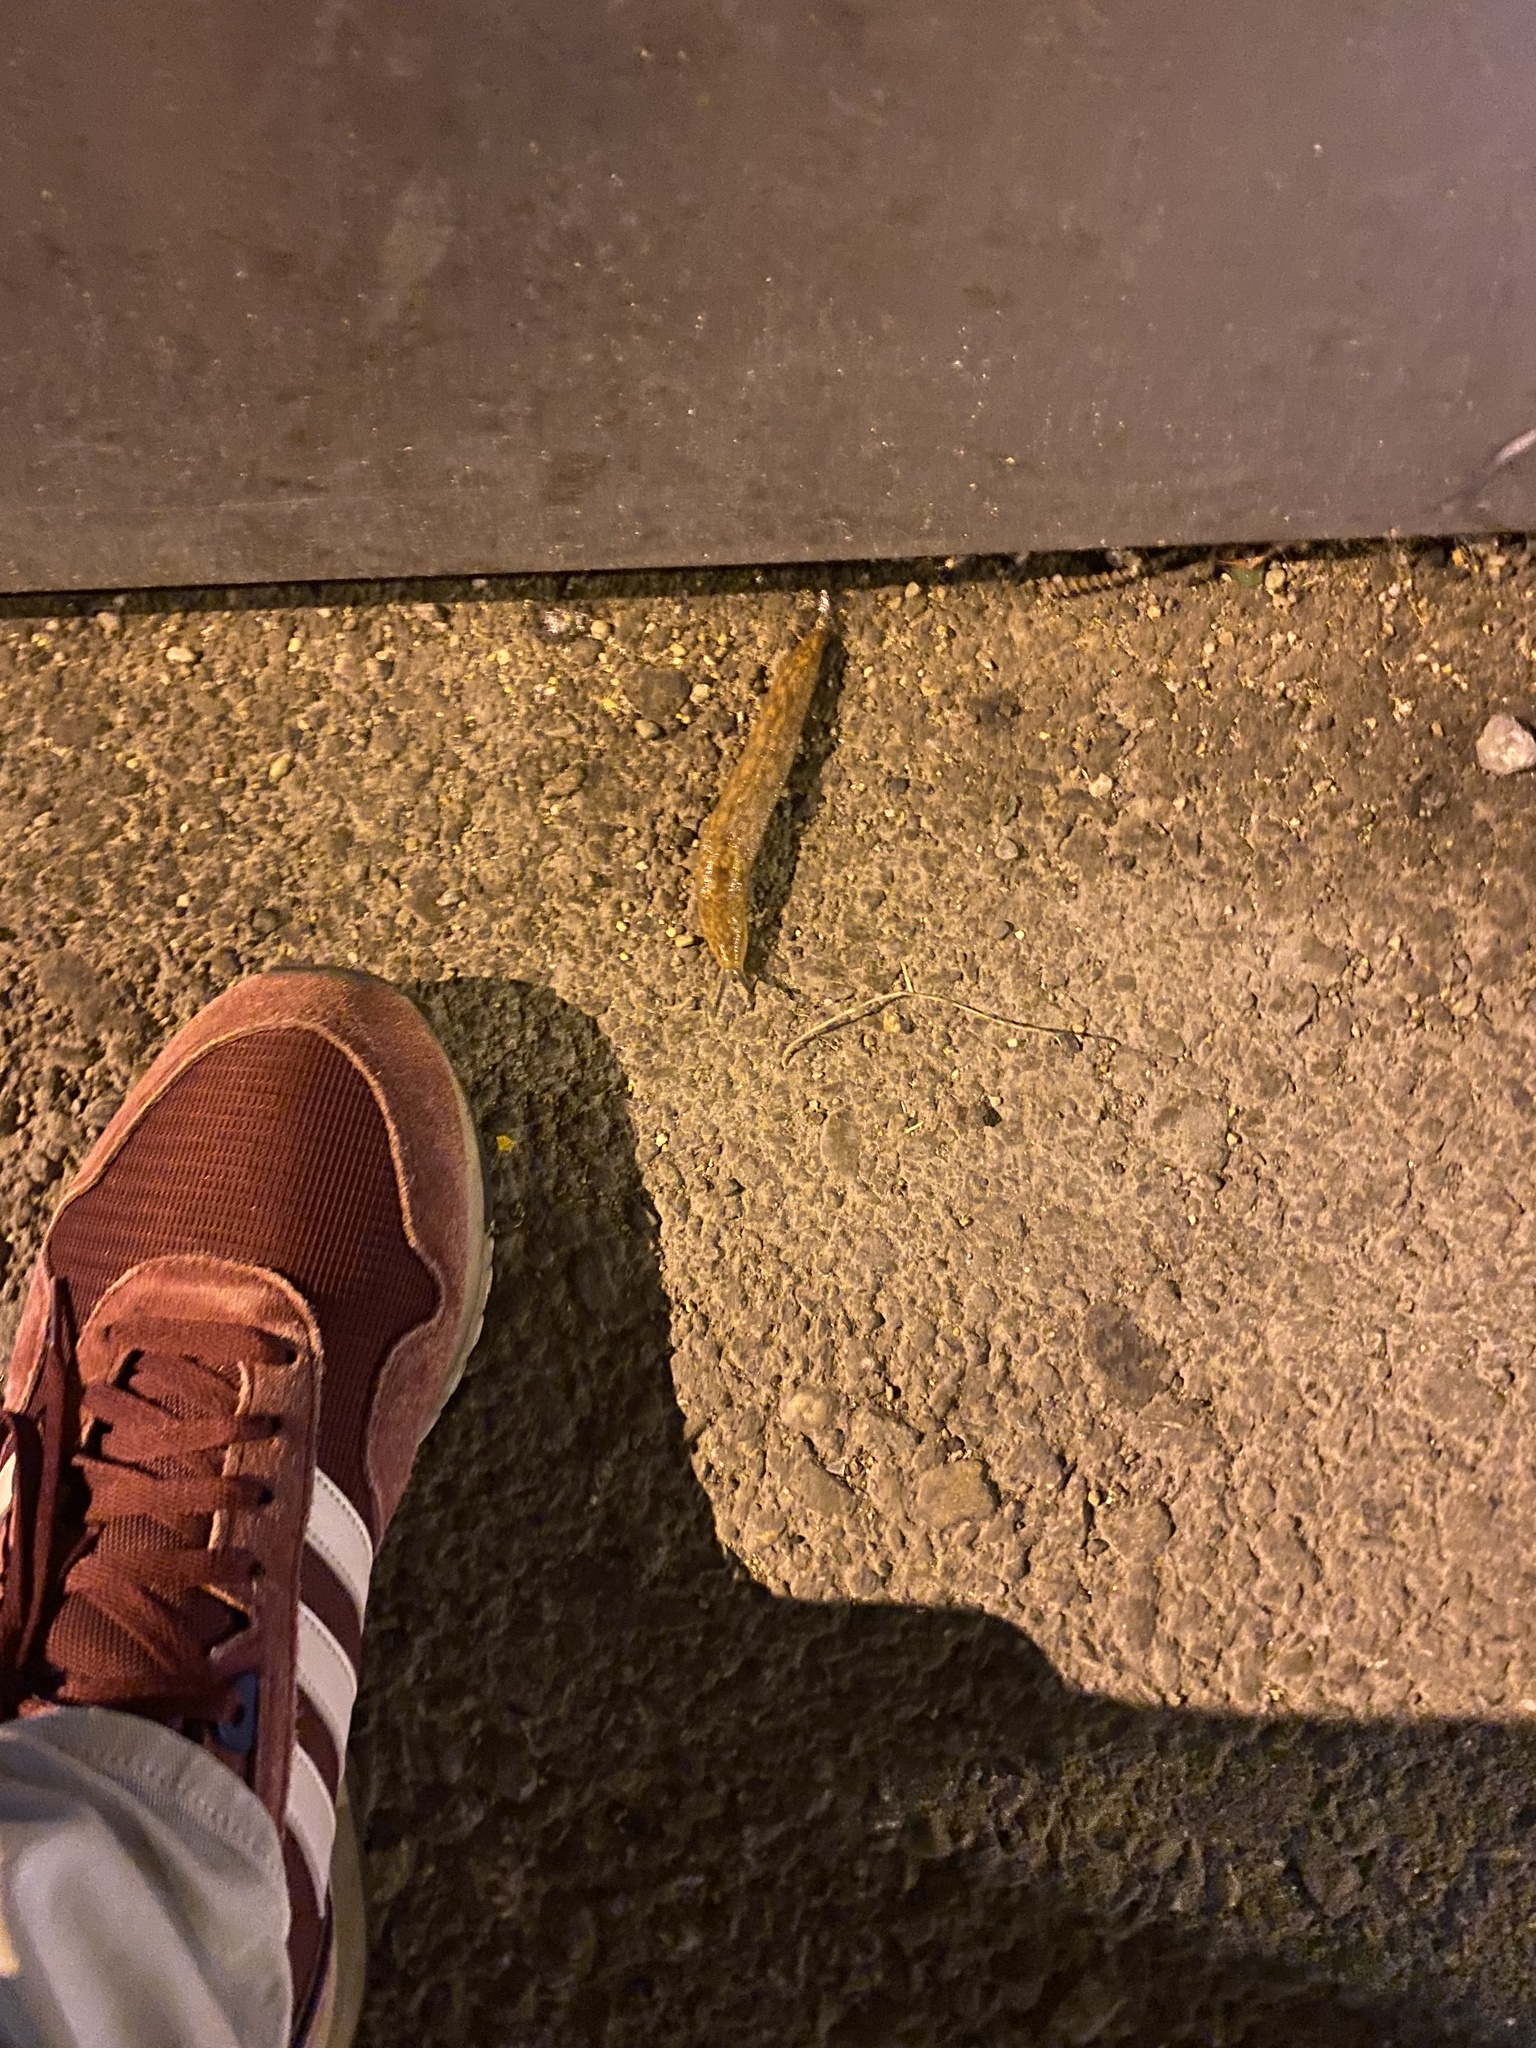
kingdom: Animalia
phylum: Mollusca
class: Gastropoda
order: Stylommatophora
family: Limacidae
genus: Limacus
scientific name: Limacus maculatus
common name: Irish yellow slug
